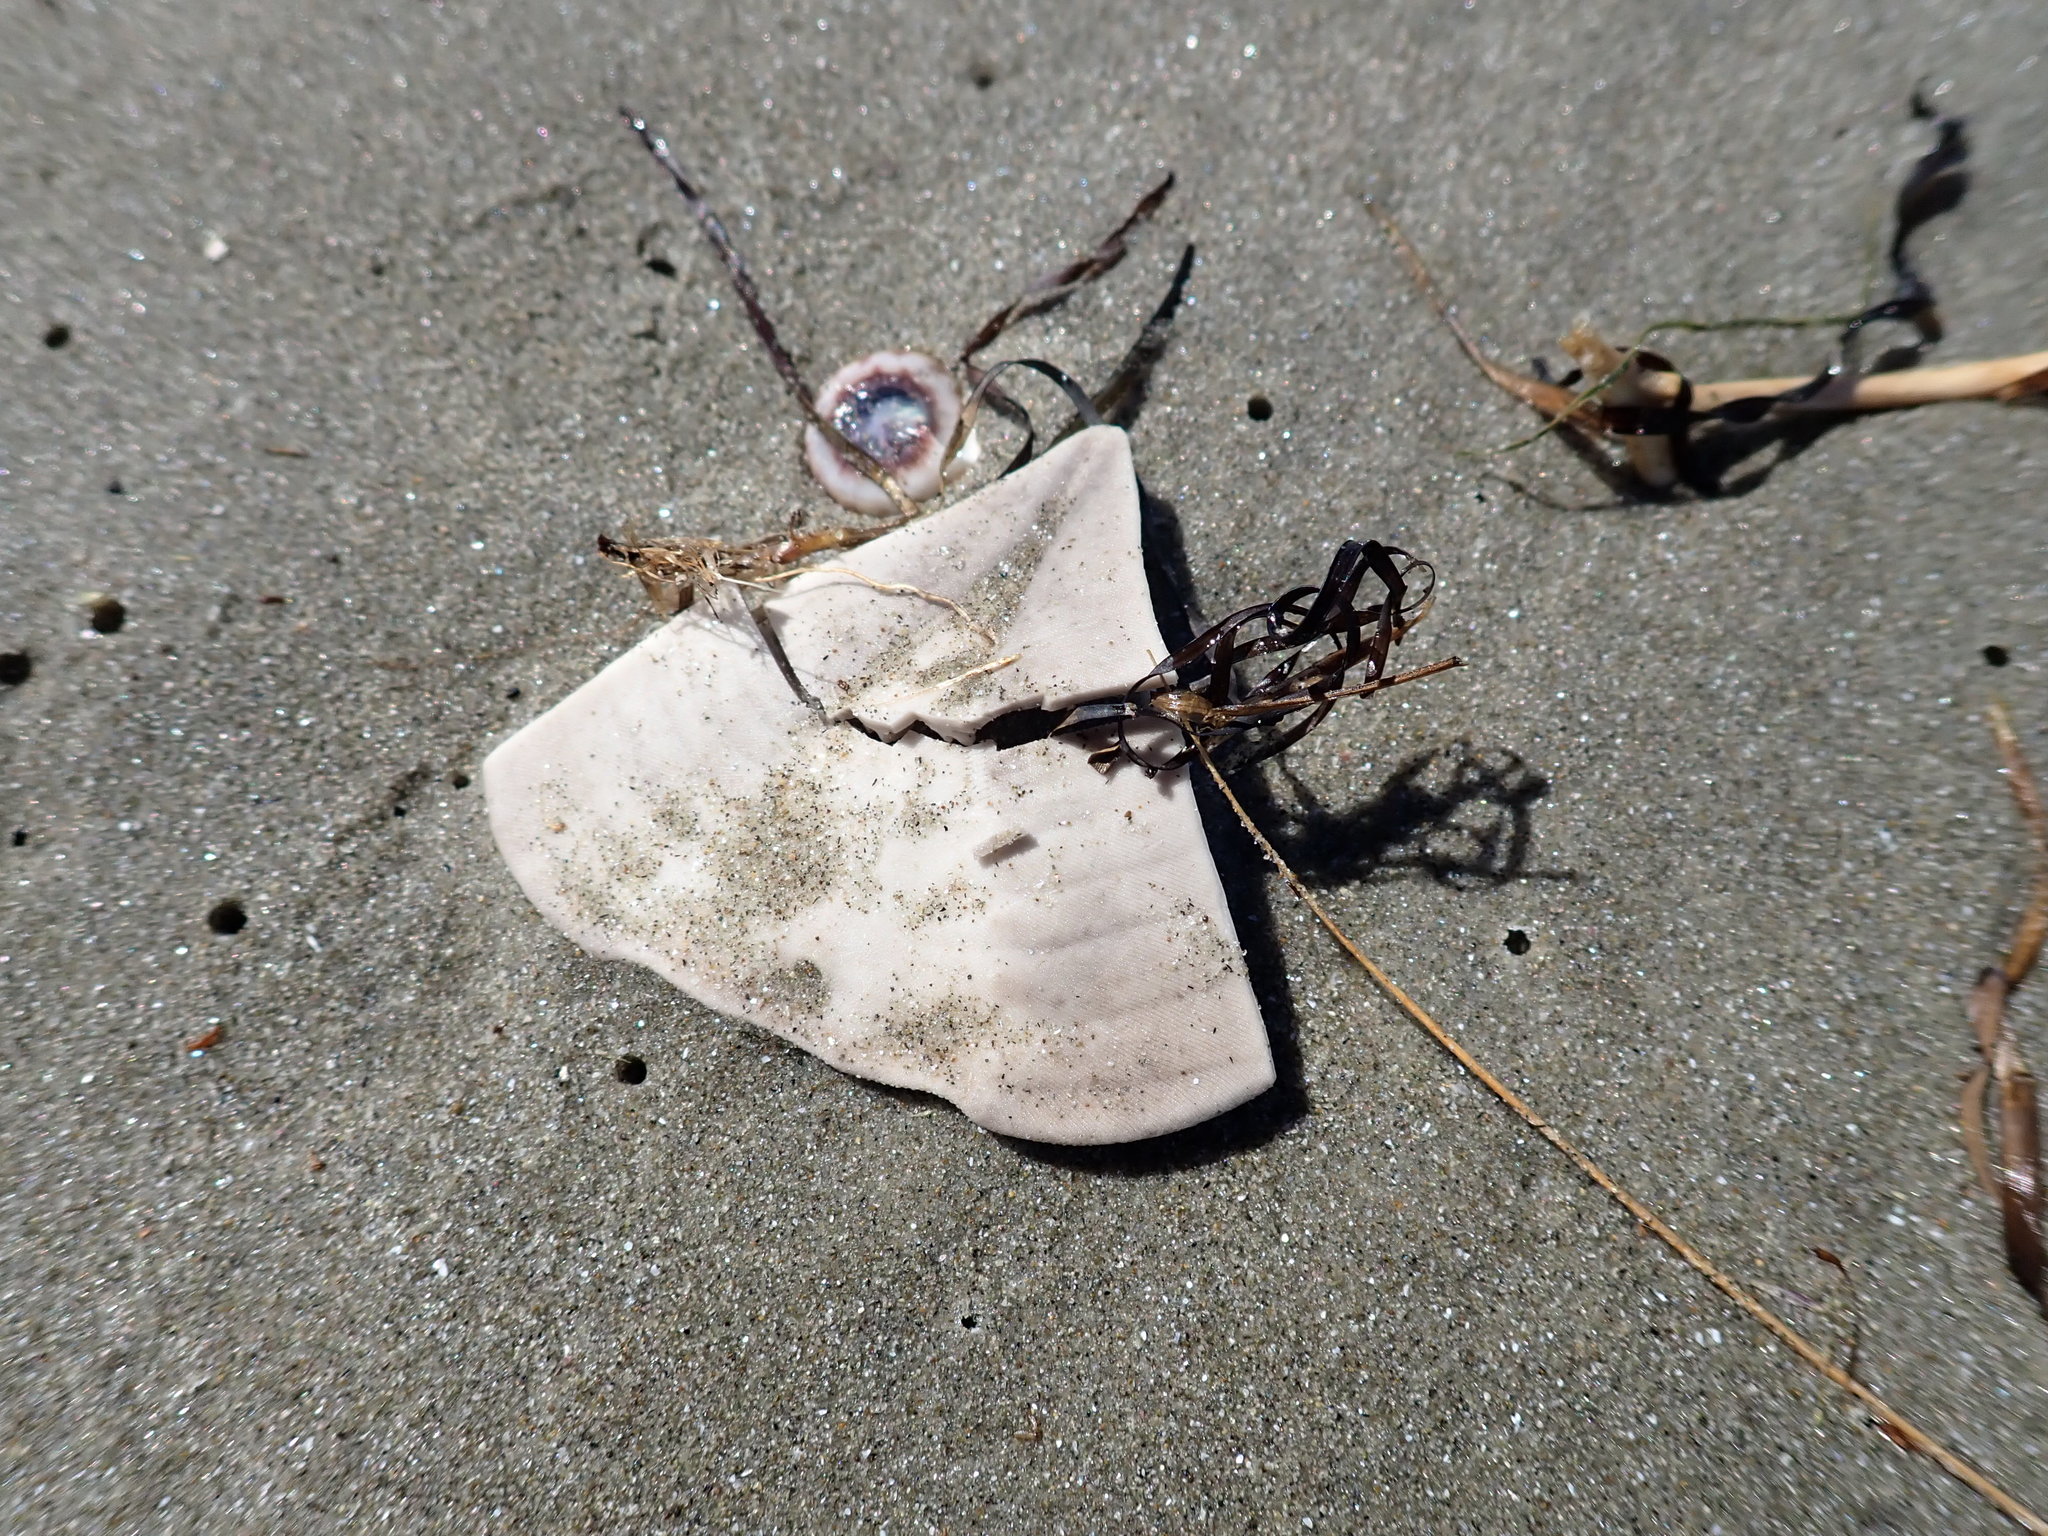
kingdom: Animalia
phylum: Echinodermata
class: Echinoidea
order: Clypeasteroida
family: Clypeasteridae
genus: Fellaster
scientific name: Fellaster zelandiae
